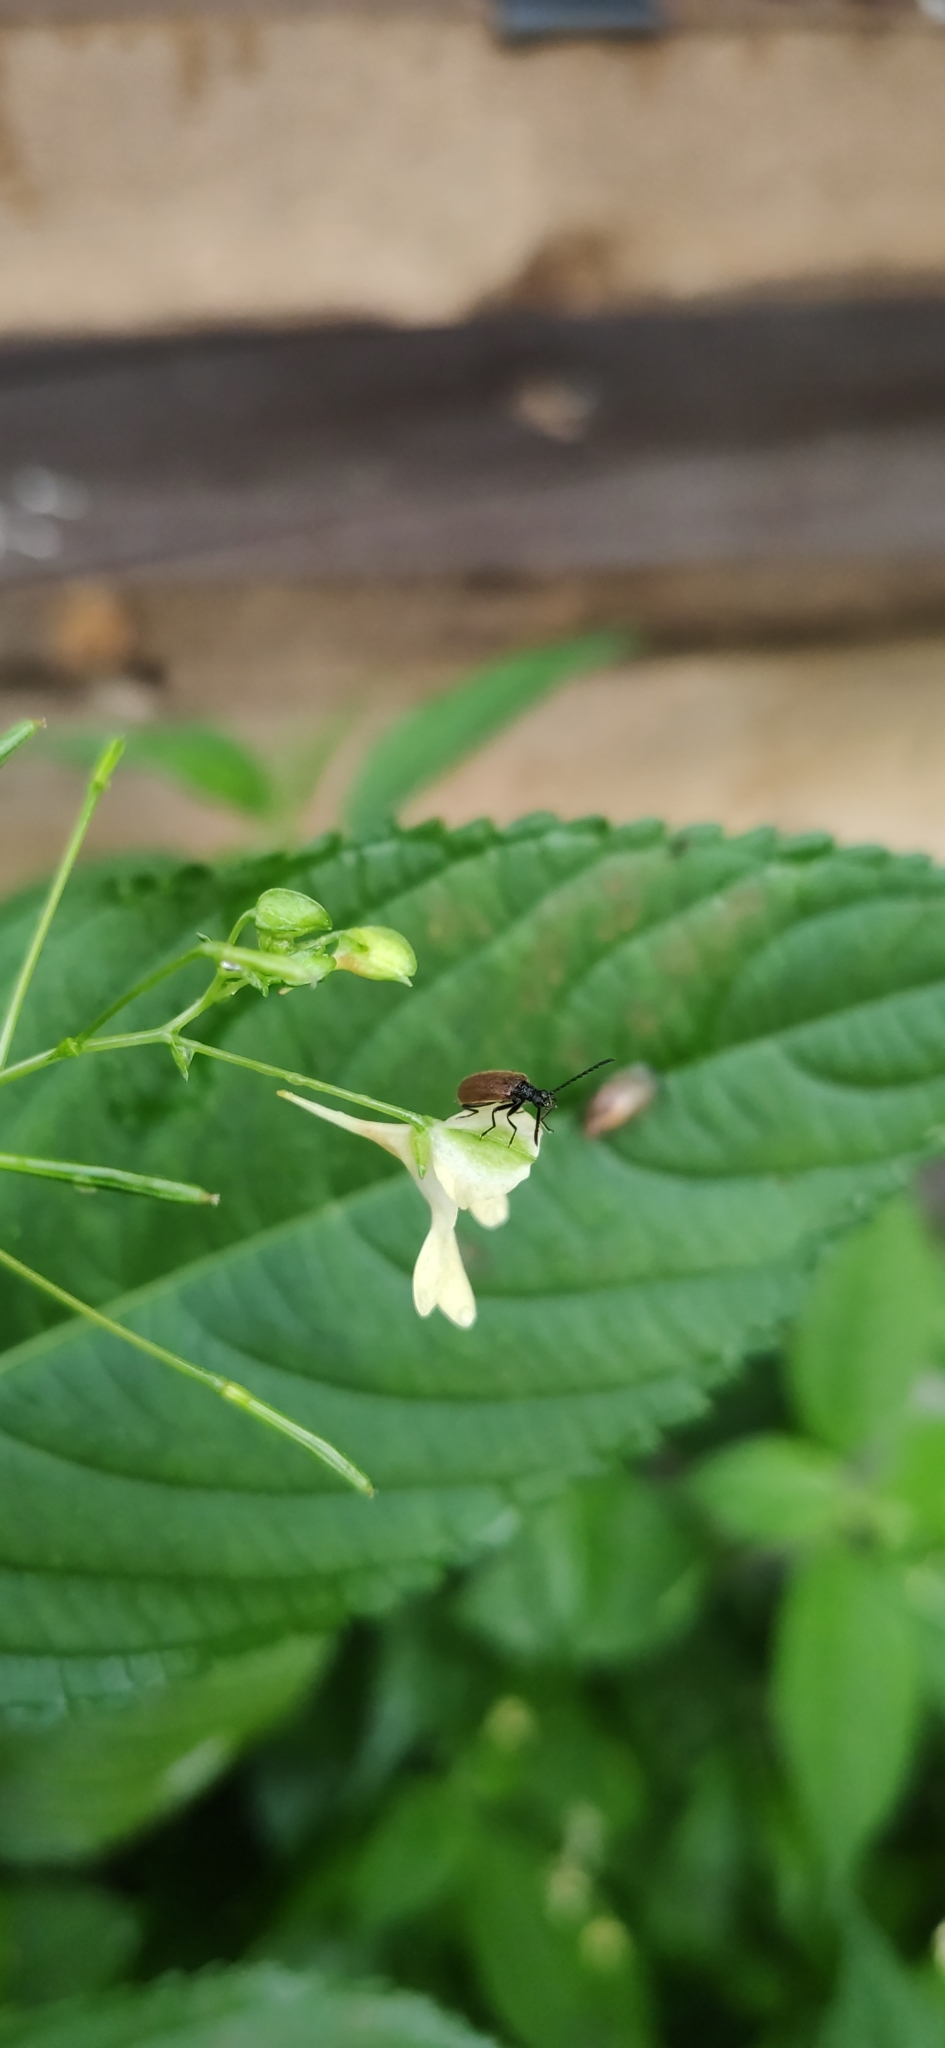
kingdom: Animalia
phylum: Arthropoda
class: Insecta
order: Coleoptera
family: Tenebrionidae
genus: Lagria
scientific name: Lagria hirta
